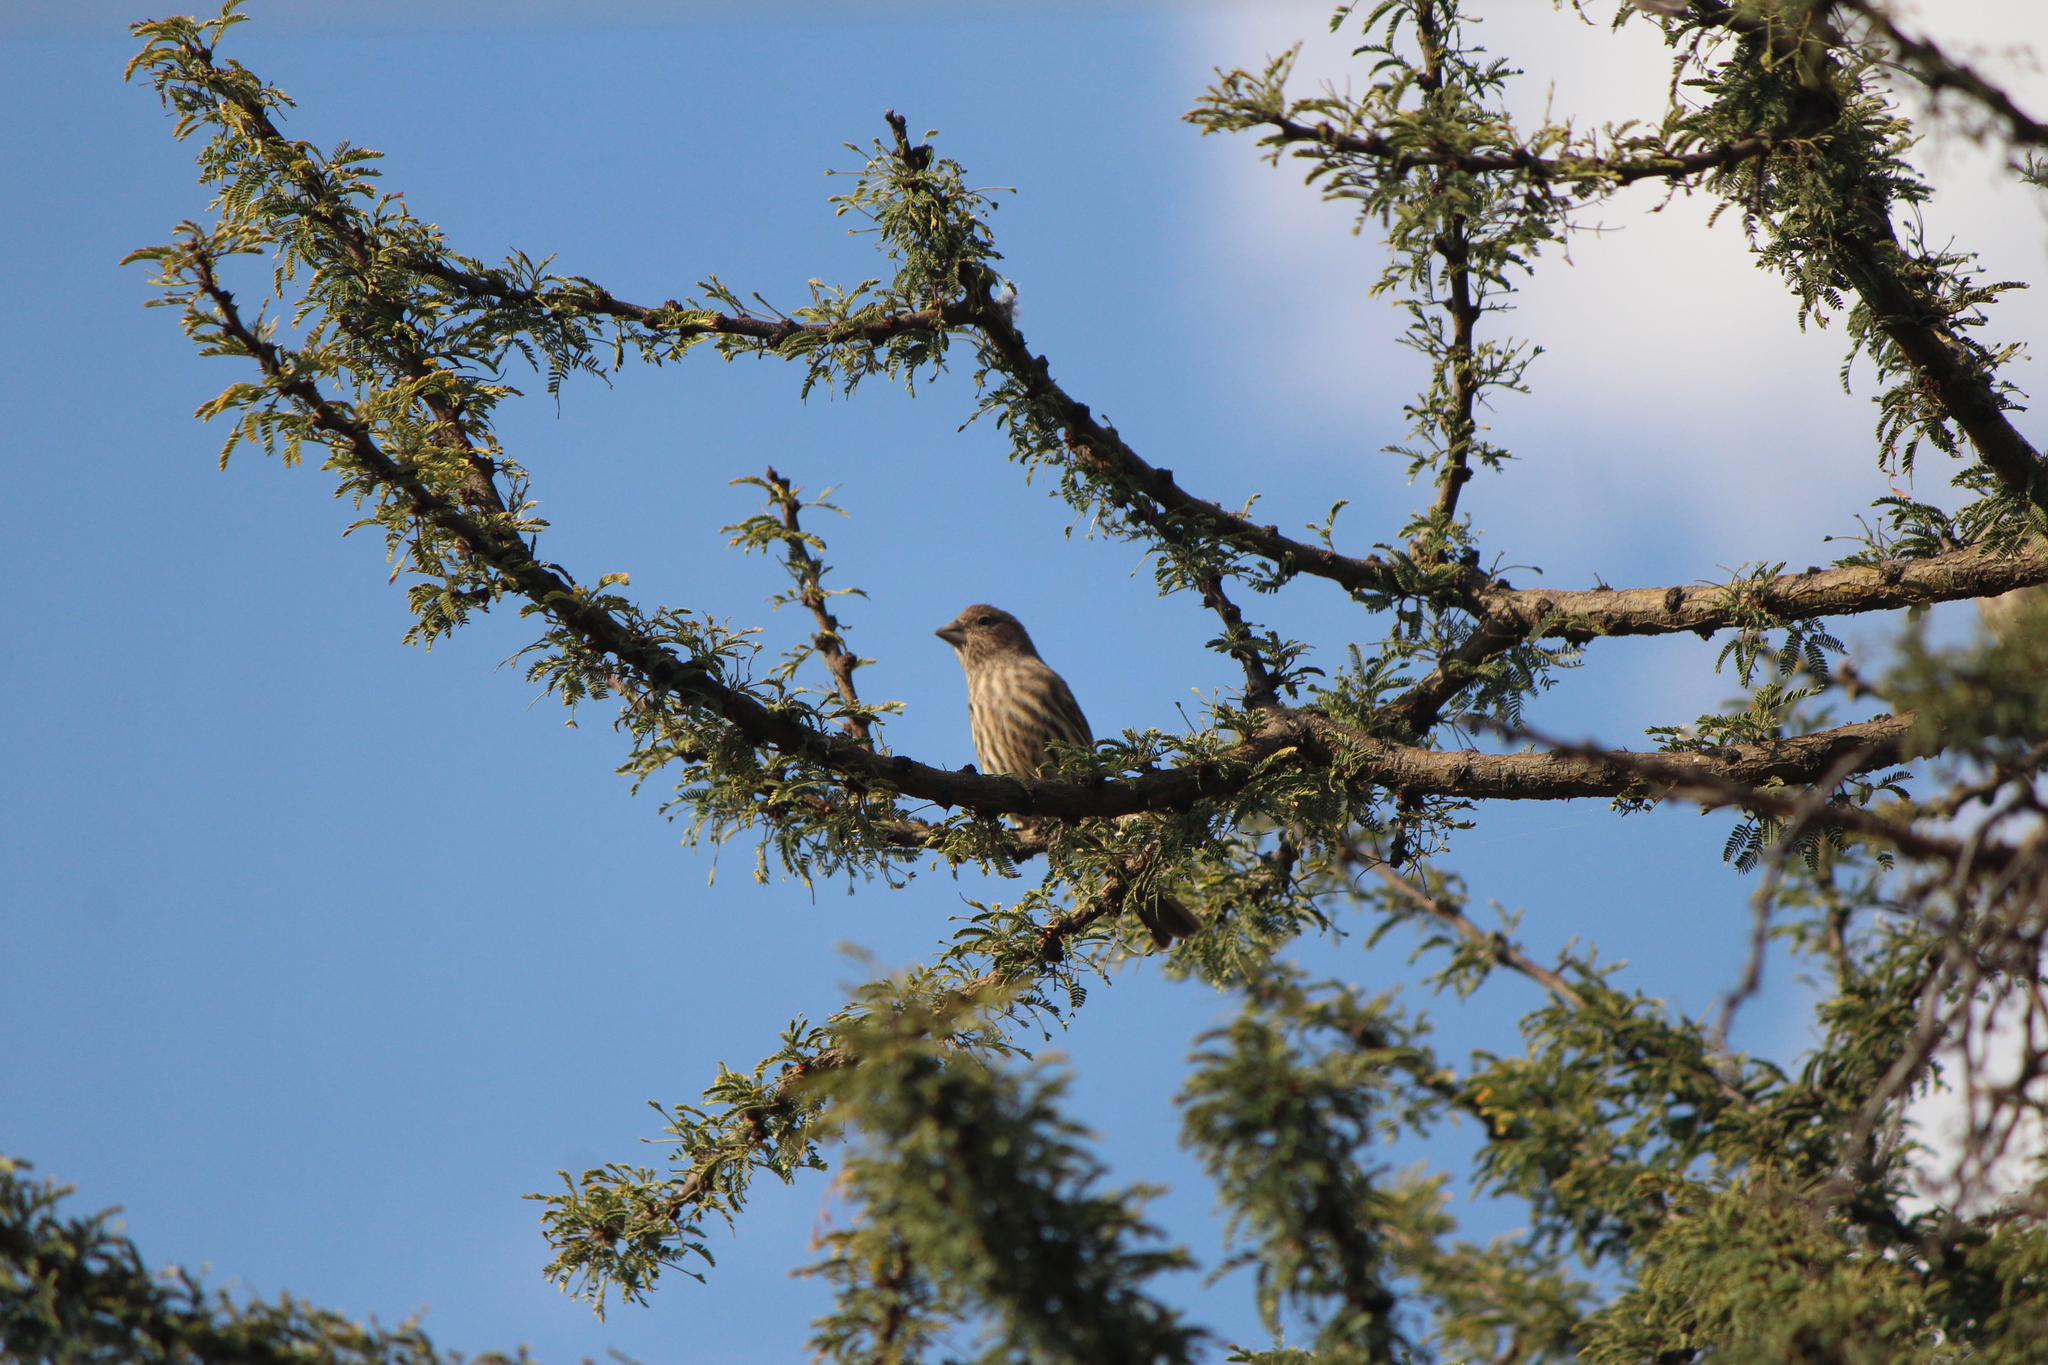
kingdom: Animalia
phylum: Chordata
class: Aves
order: Passeriformes
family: Fringillidae
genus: Haemorhous
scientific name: Haemorhous mexicanus
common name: House finch
